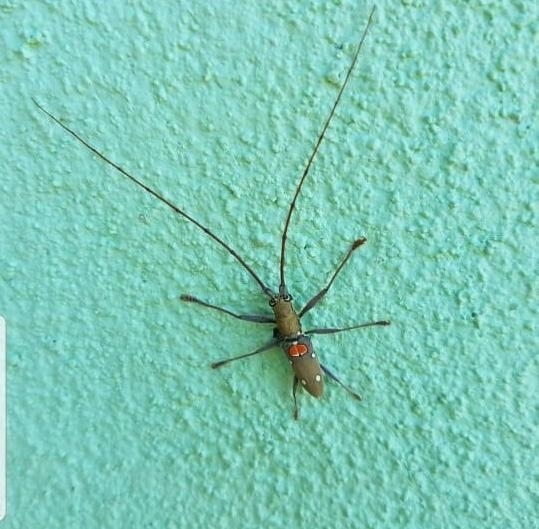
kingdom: Animalia
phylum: Arthropoda
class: Insecta
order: Coleoptera
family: Cerambycidae
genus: Olenecamptus
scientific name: Olenecamptus bilobus
